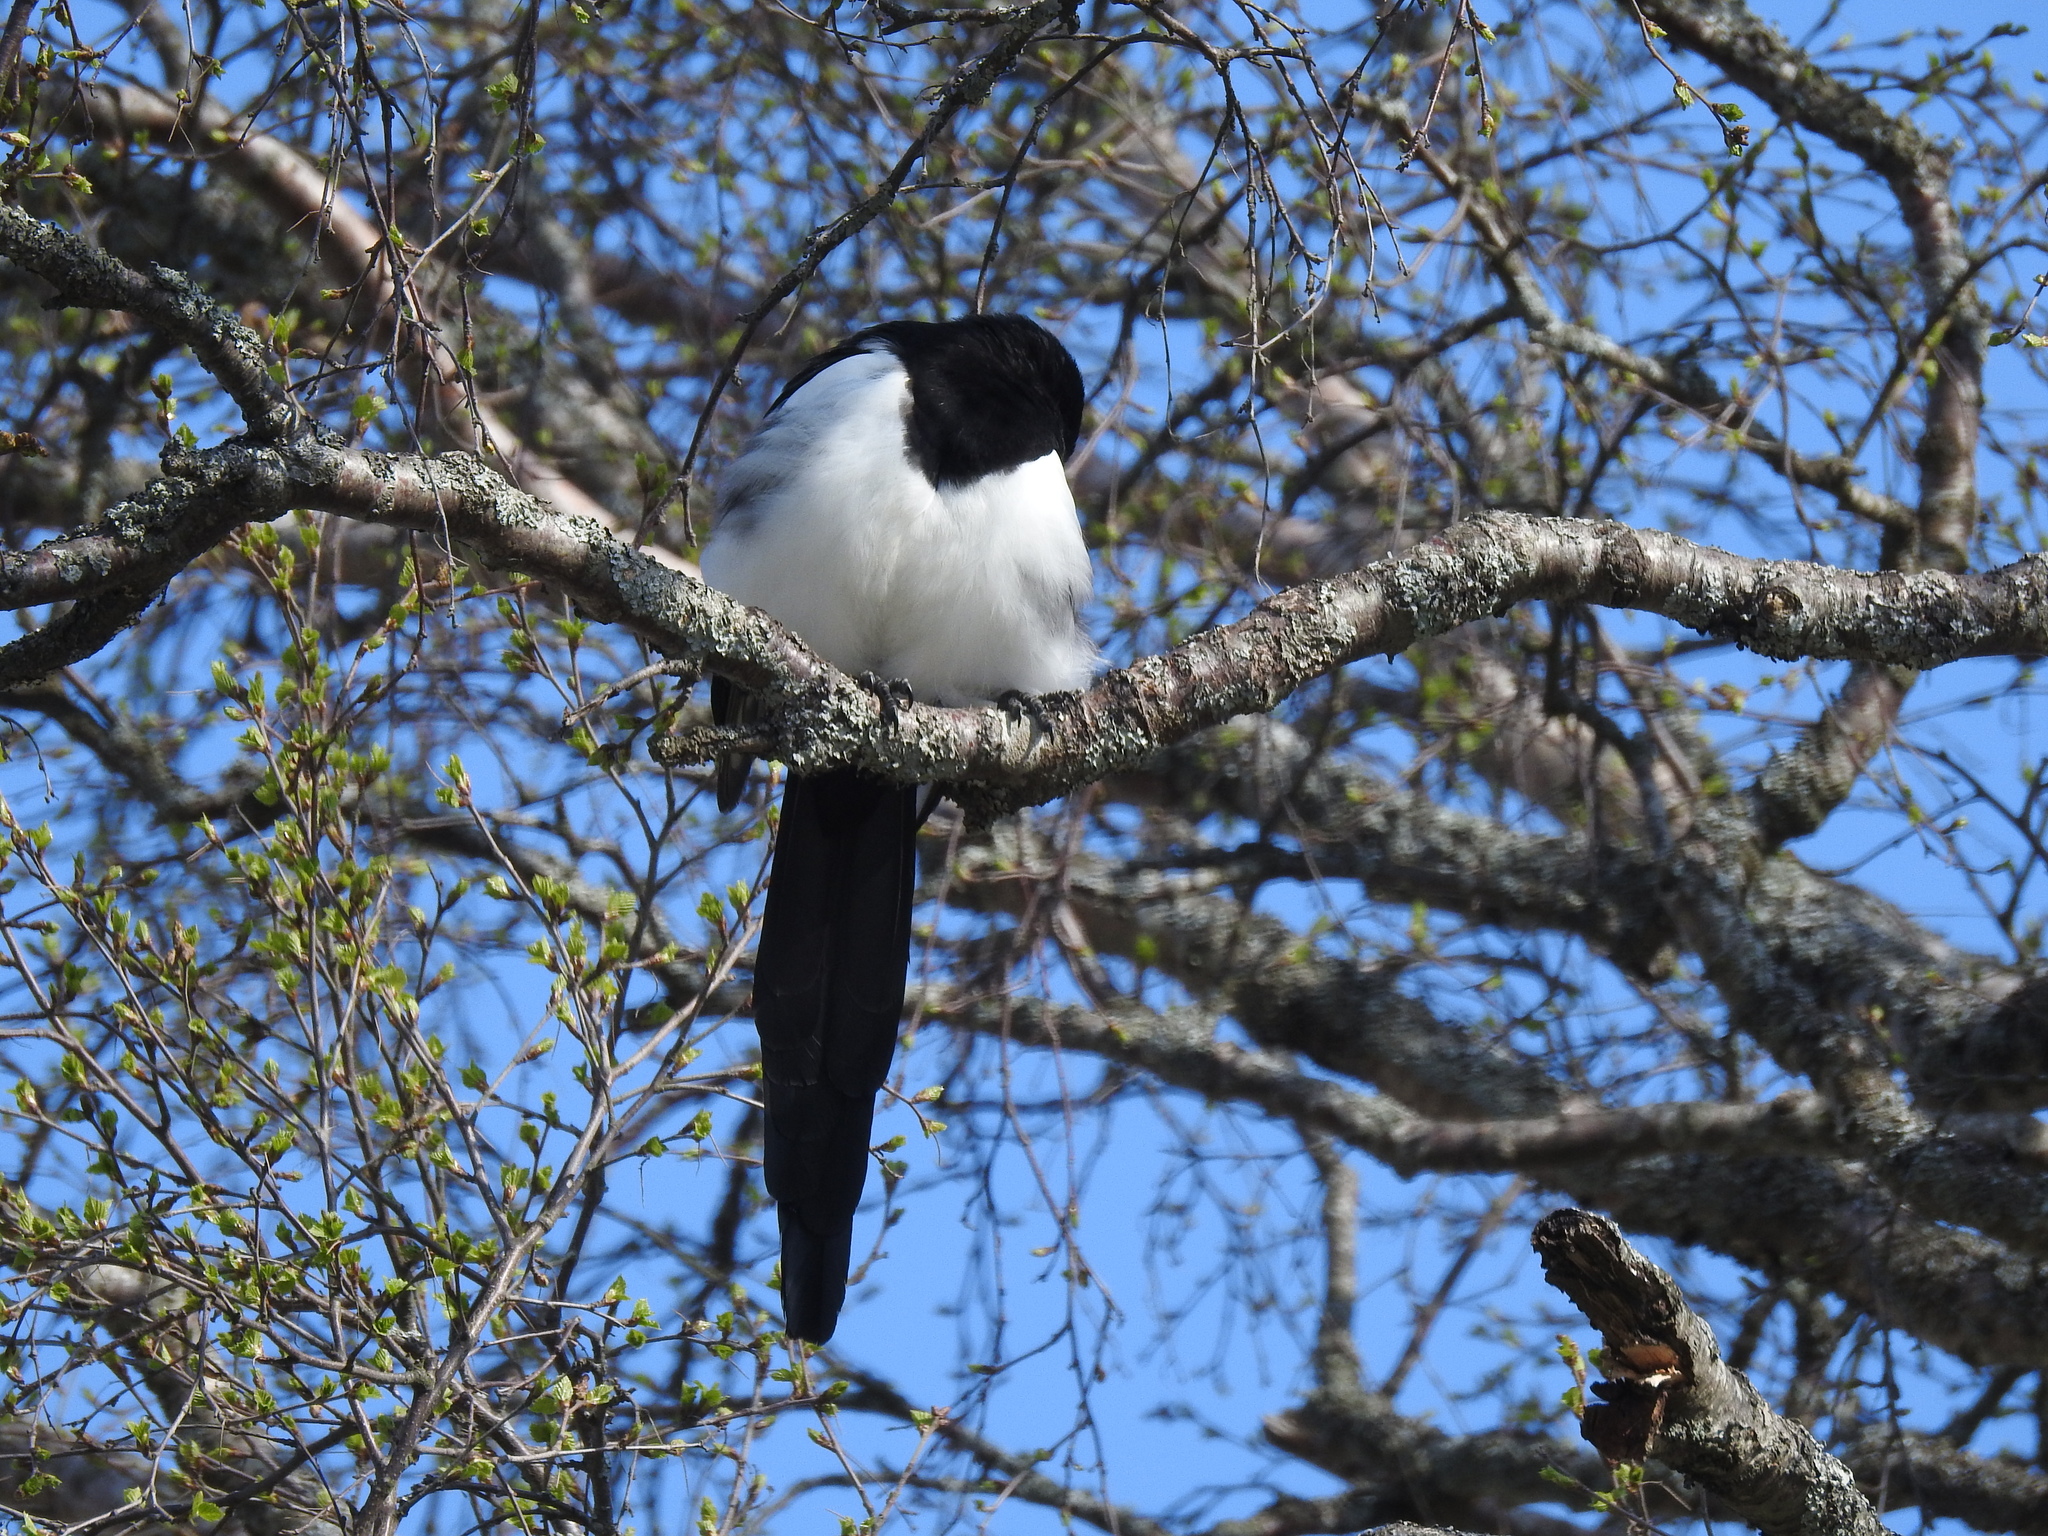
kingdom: Animalia
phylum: Chordata
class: Aves
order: Passeriformes
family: Corvidae
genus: Pica
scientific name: Pica pica
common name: Eurasian magpie
